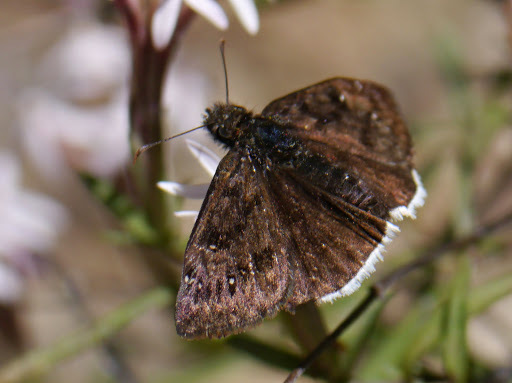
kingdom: Animalia
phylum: Arthropoda
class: Insecta
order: Lepidoptera
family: Hesperiidae
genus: Erynnis
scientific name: Erynnis funeralis
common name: Funereal duskywing
